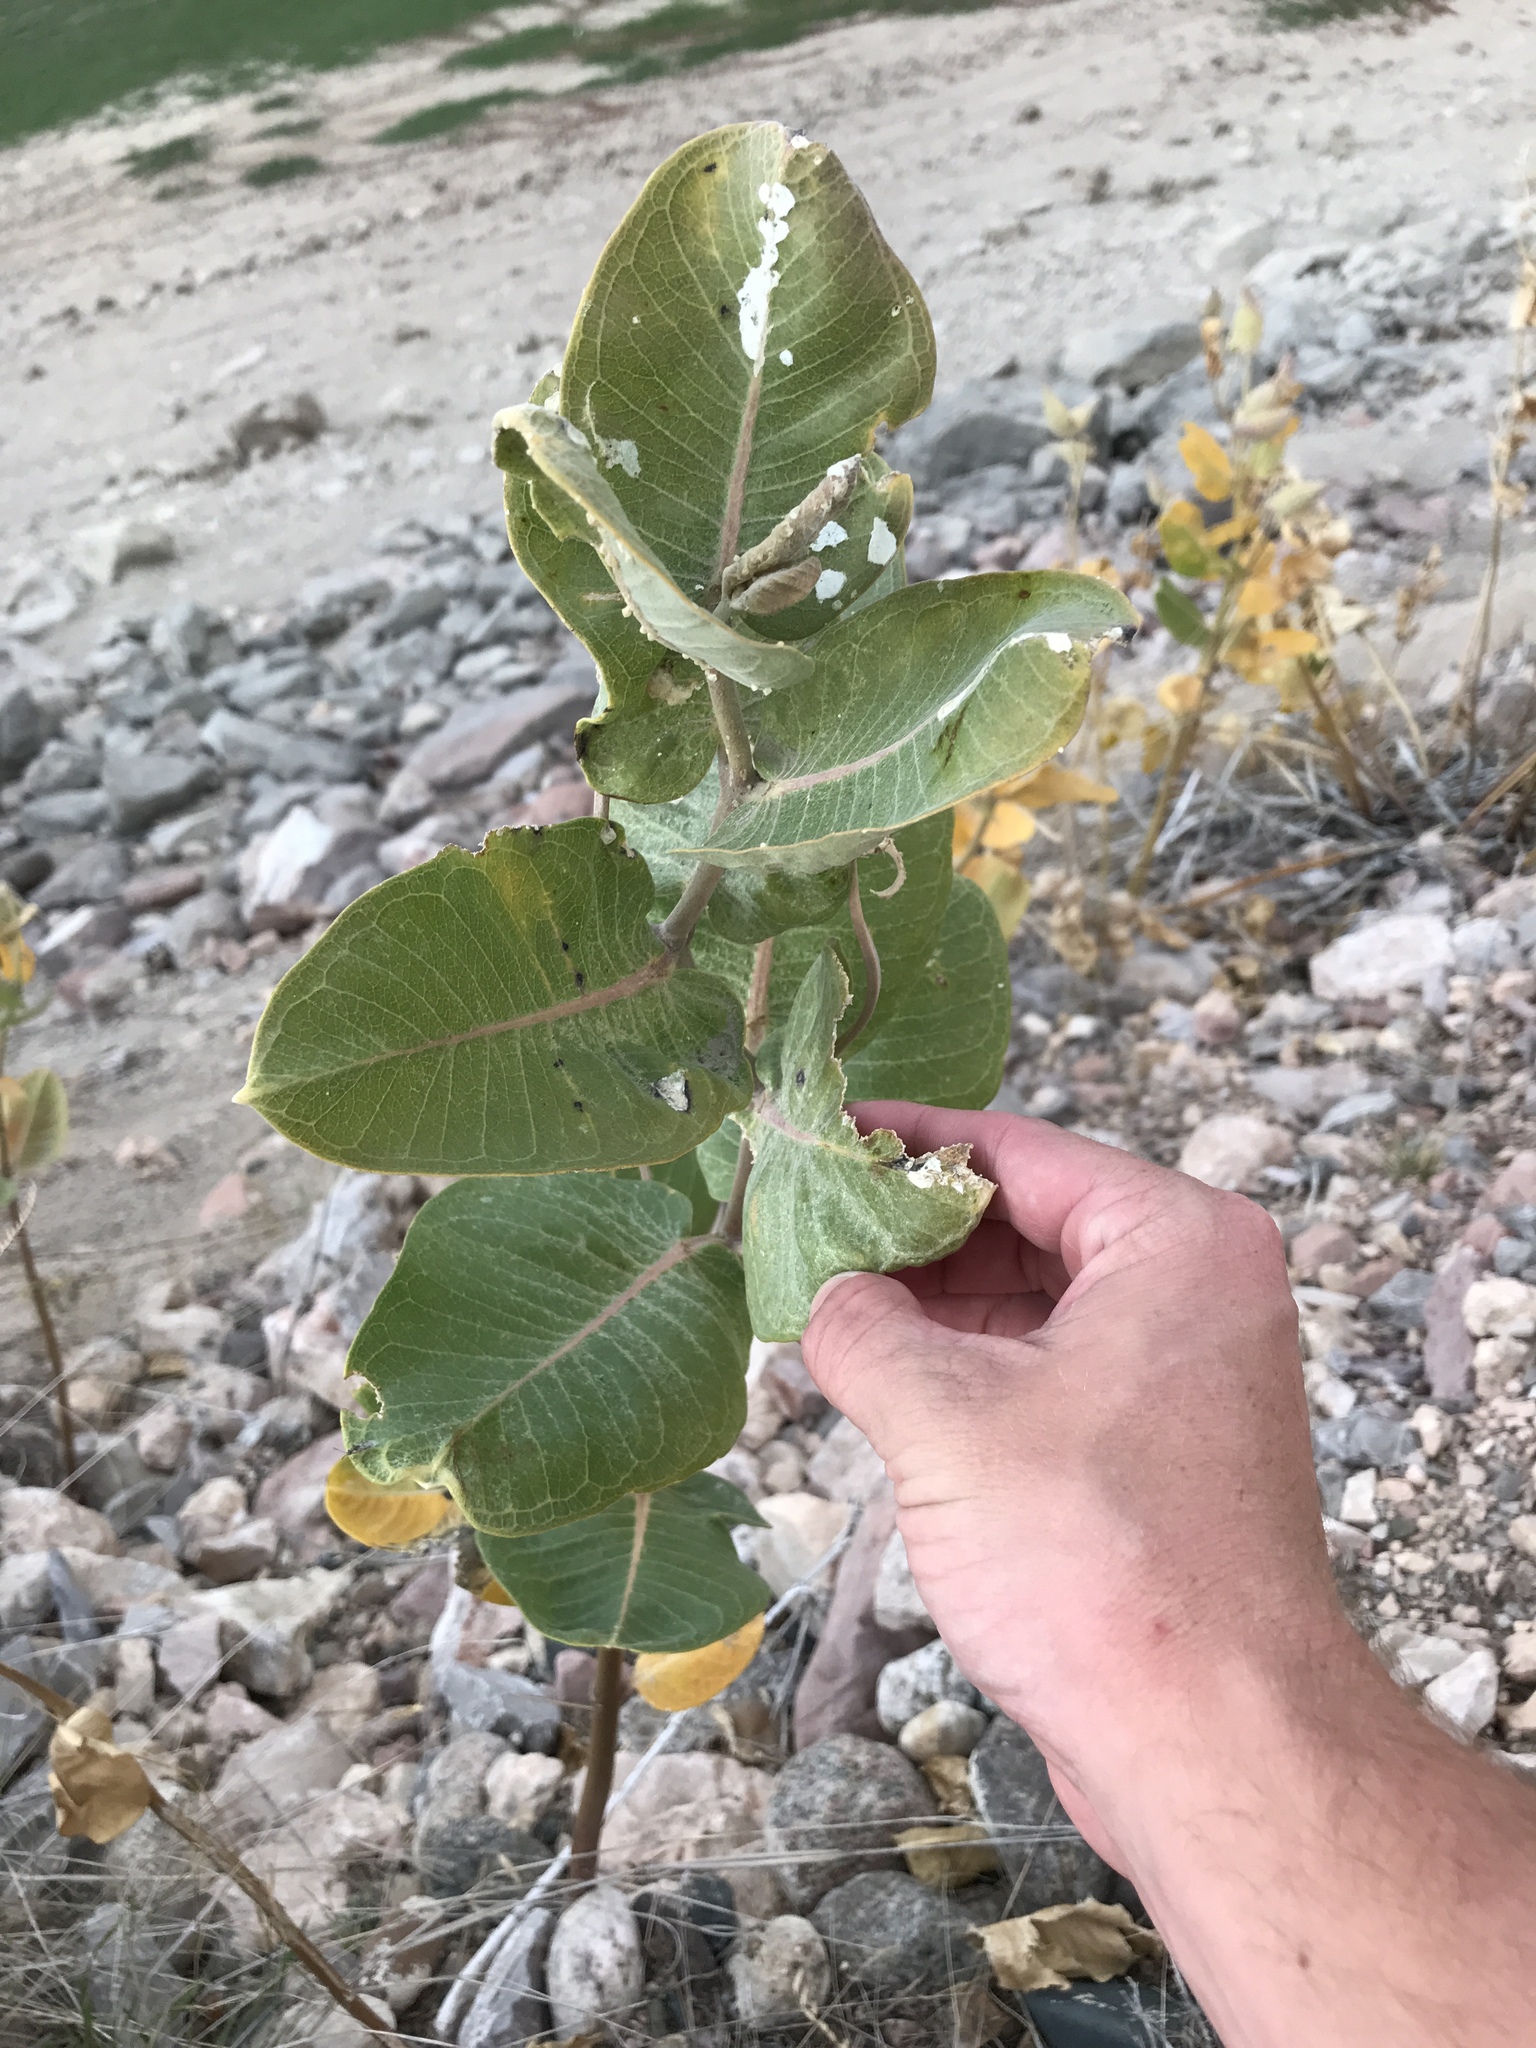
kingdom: Plantae
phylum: Tracheophyta
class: Magnoliopsida
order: Gentianales
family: Apocynaceae
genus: Asclepias
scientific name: Asclepias speciosa
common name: Showy milkweed
